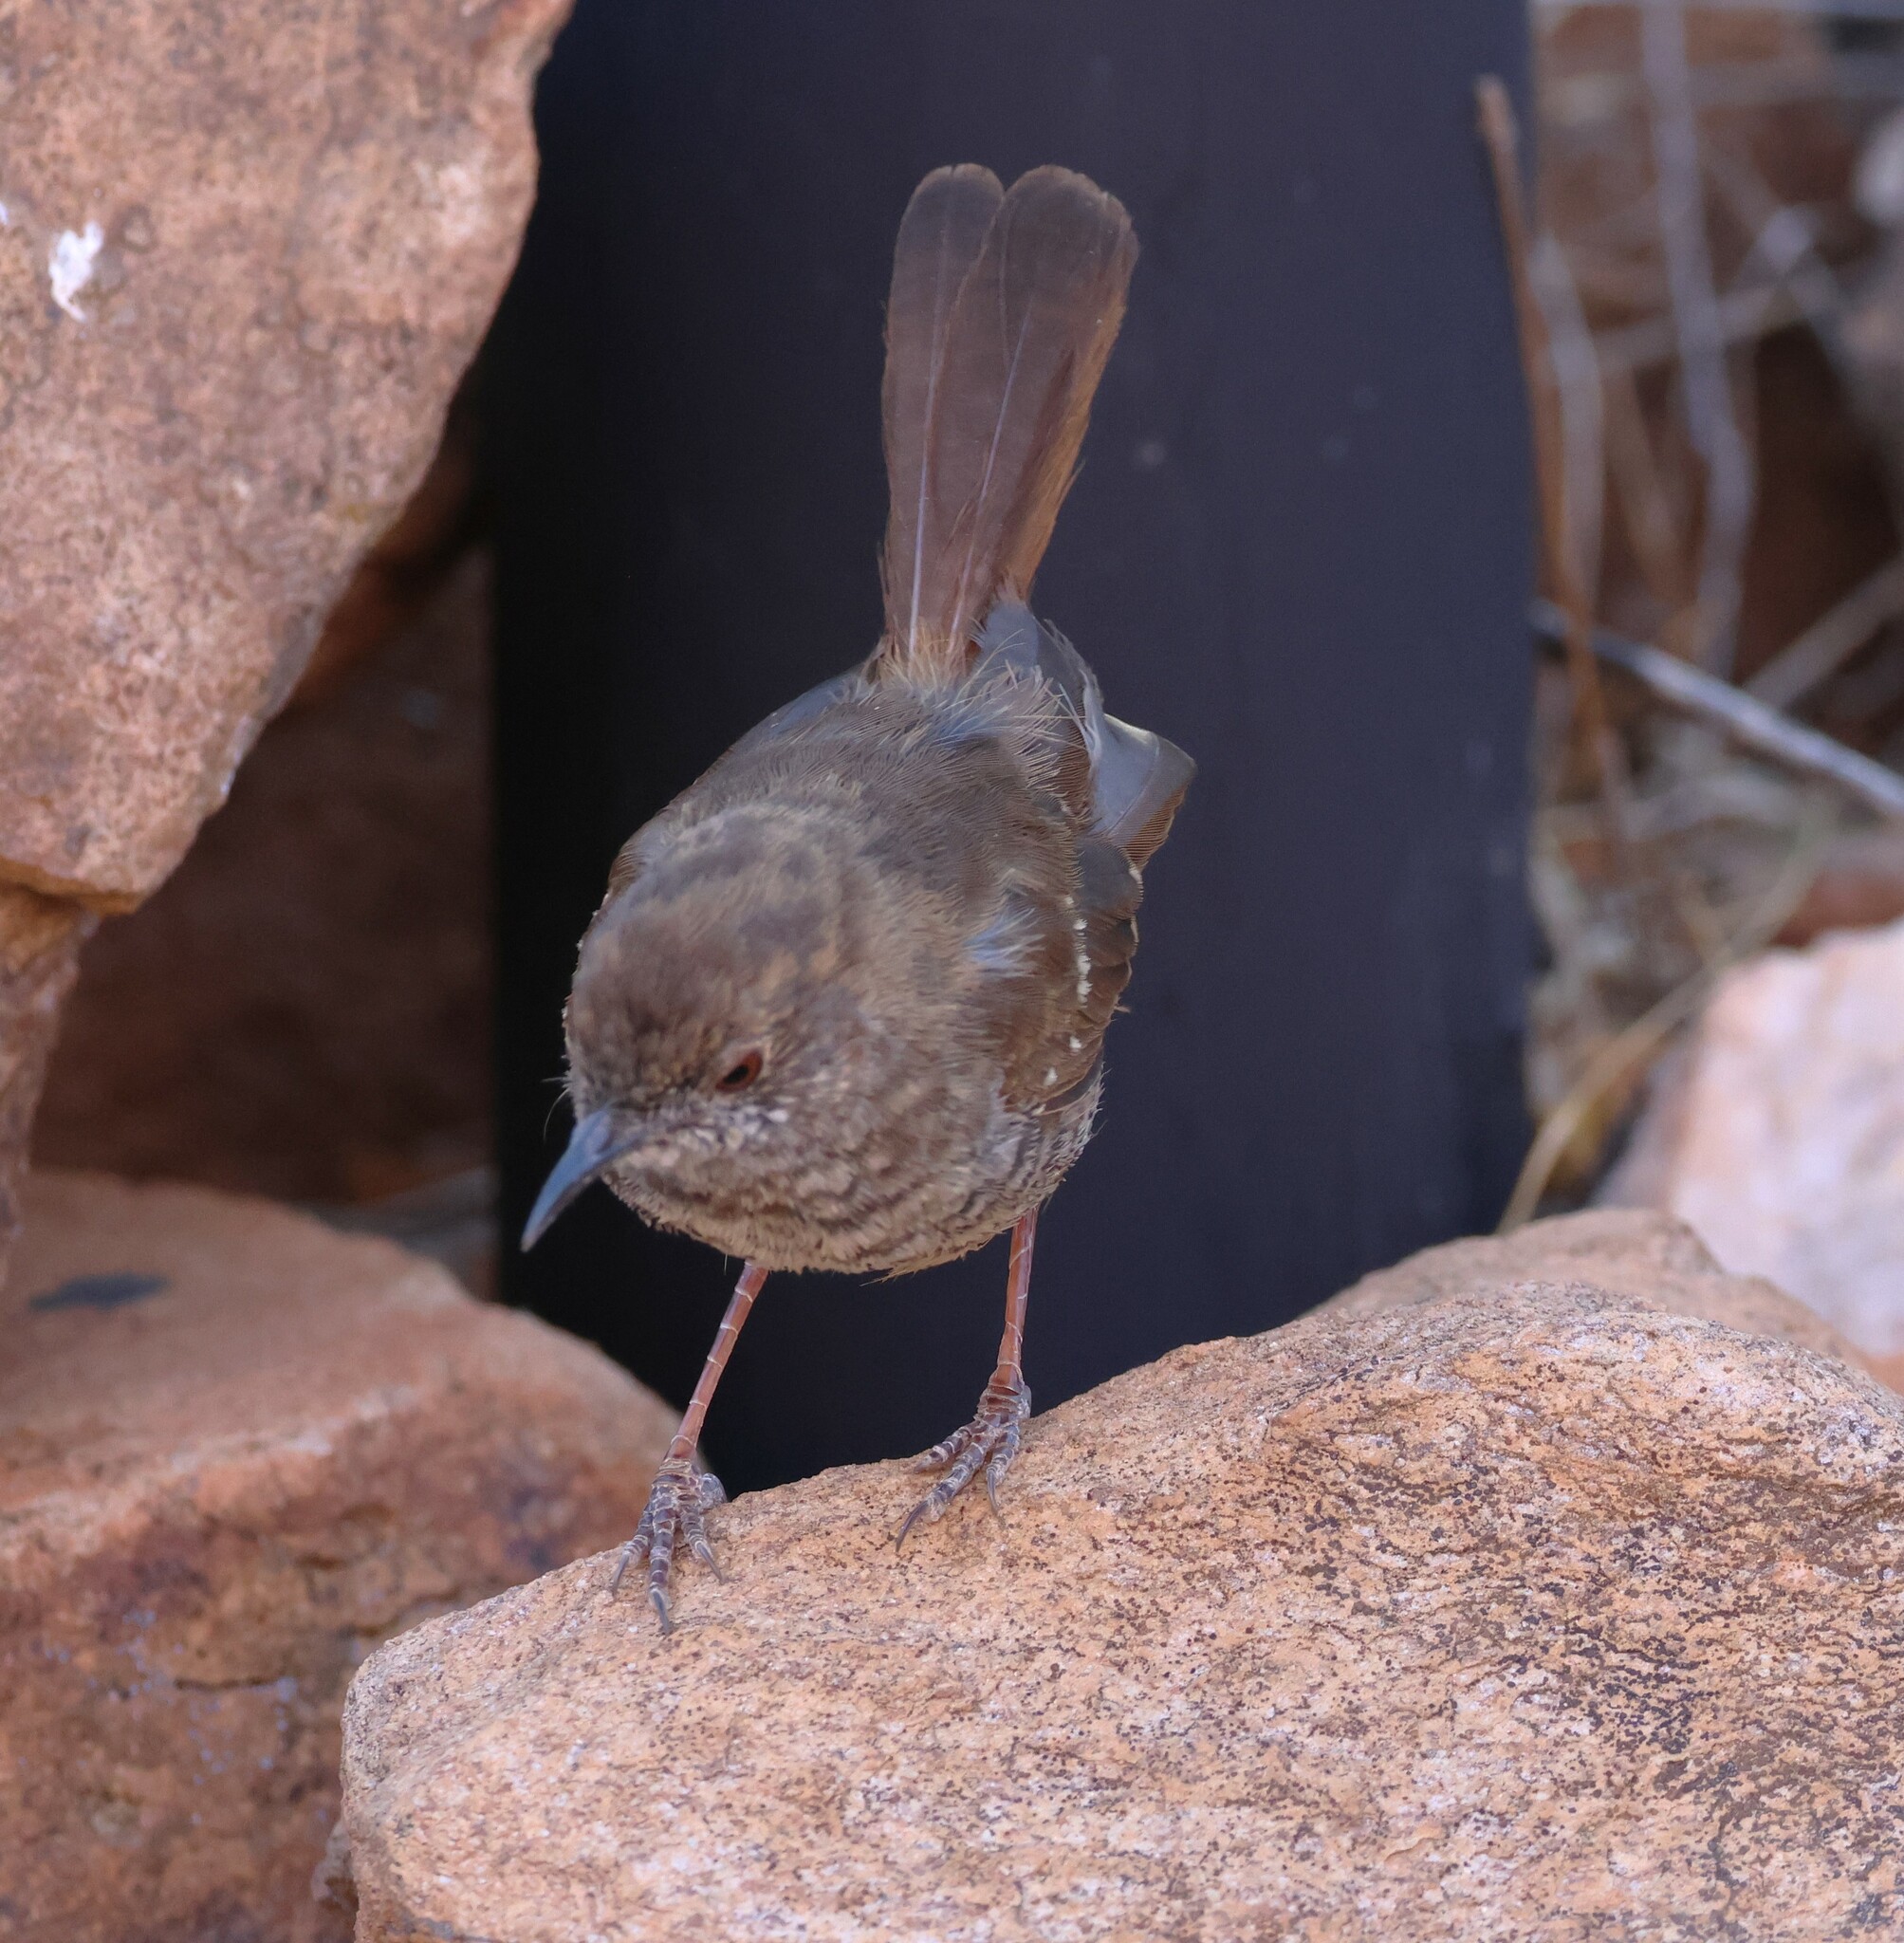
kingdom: Animalia
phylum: Chordata
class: Aves
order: Passeriformes
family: Cisticolidae
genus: Calamonastes
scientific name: Calamonastes fasciolatus
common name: Barred wren-warbler
